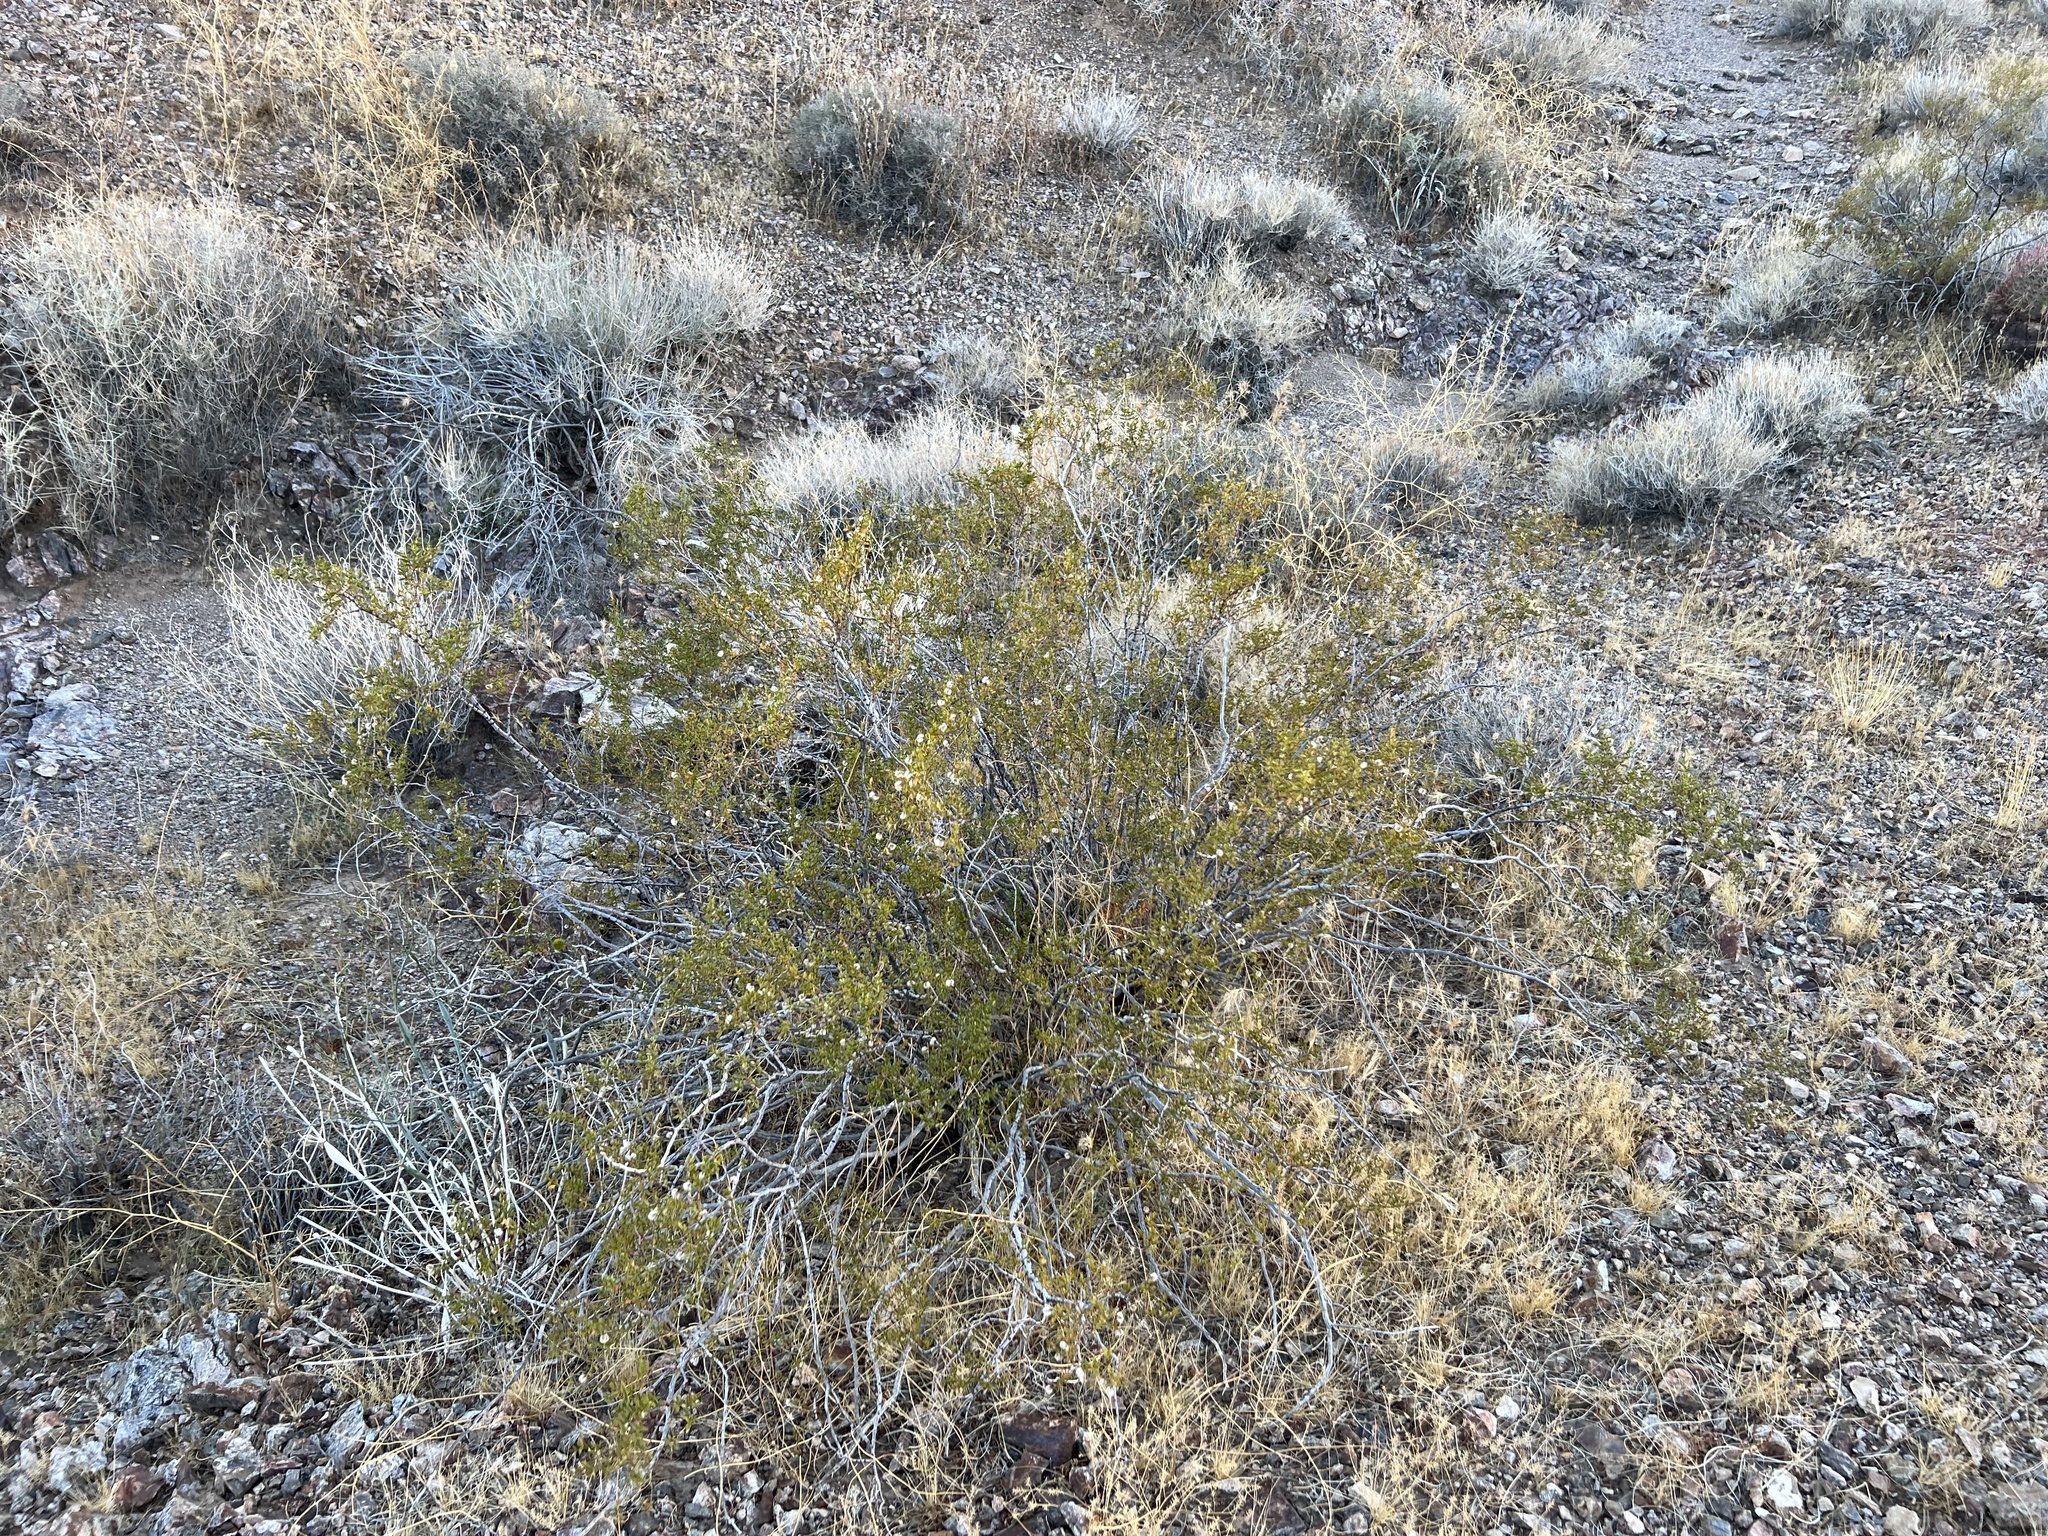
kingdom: Plantae
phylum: Tracheophyta
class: Magnoliopsida
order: Zygophyllales
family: Zygophyllaceae
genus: Larrea
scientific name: Larrea tridentata
